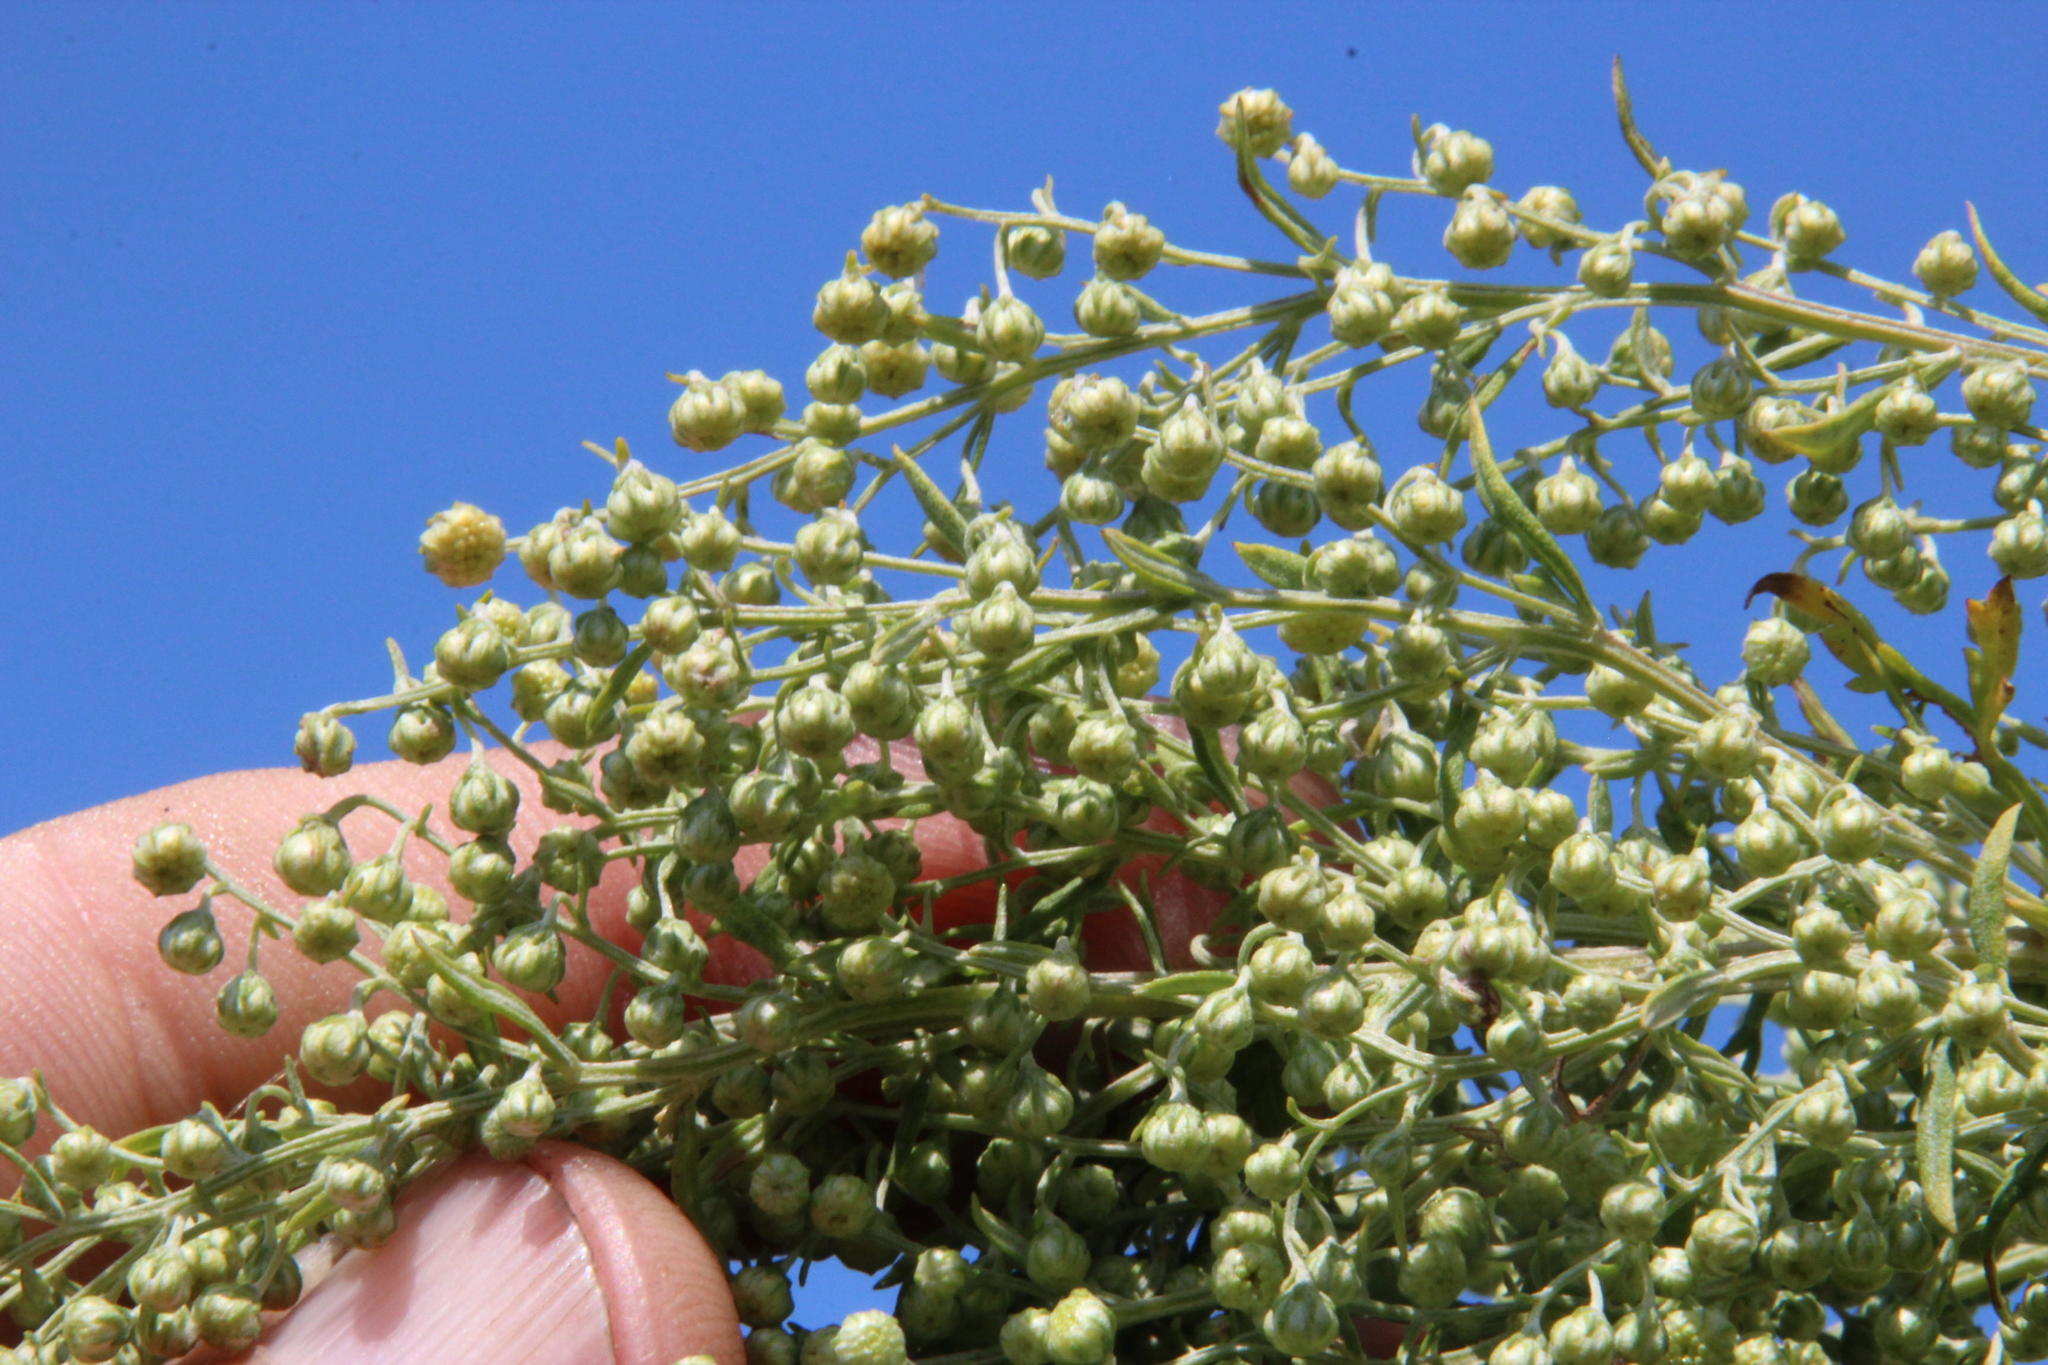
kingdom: Plantae
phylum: Tracheophyta
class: Magnoliopsida
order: Asterales
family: Asteraceae
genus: Artemisia
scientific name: Artemisia afra
